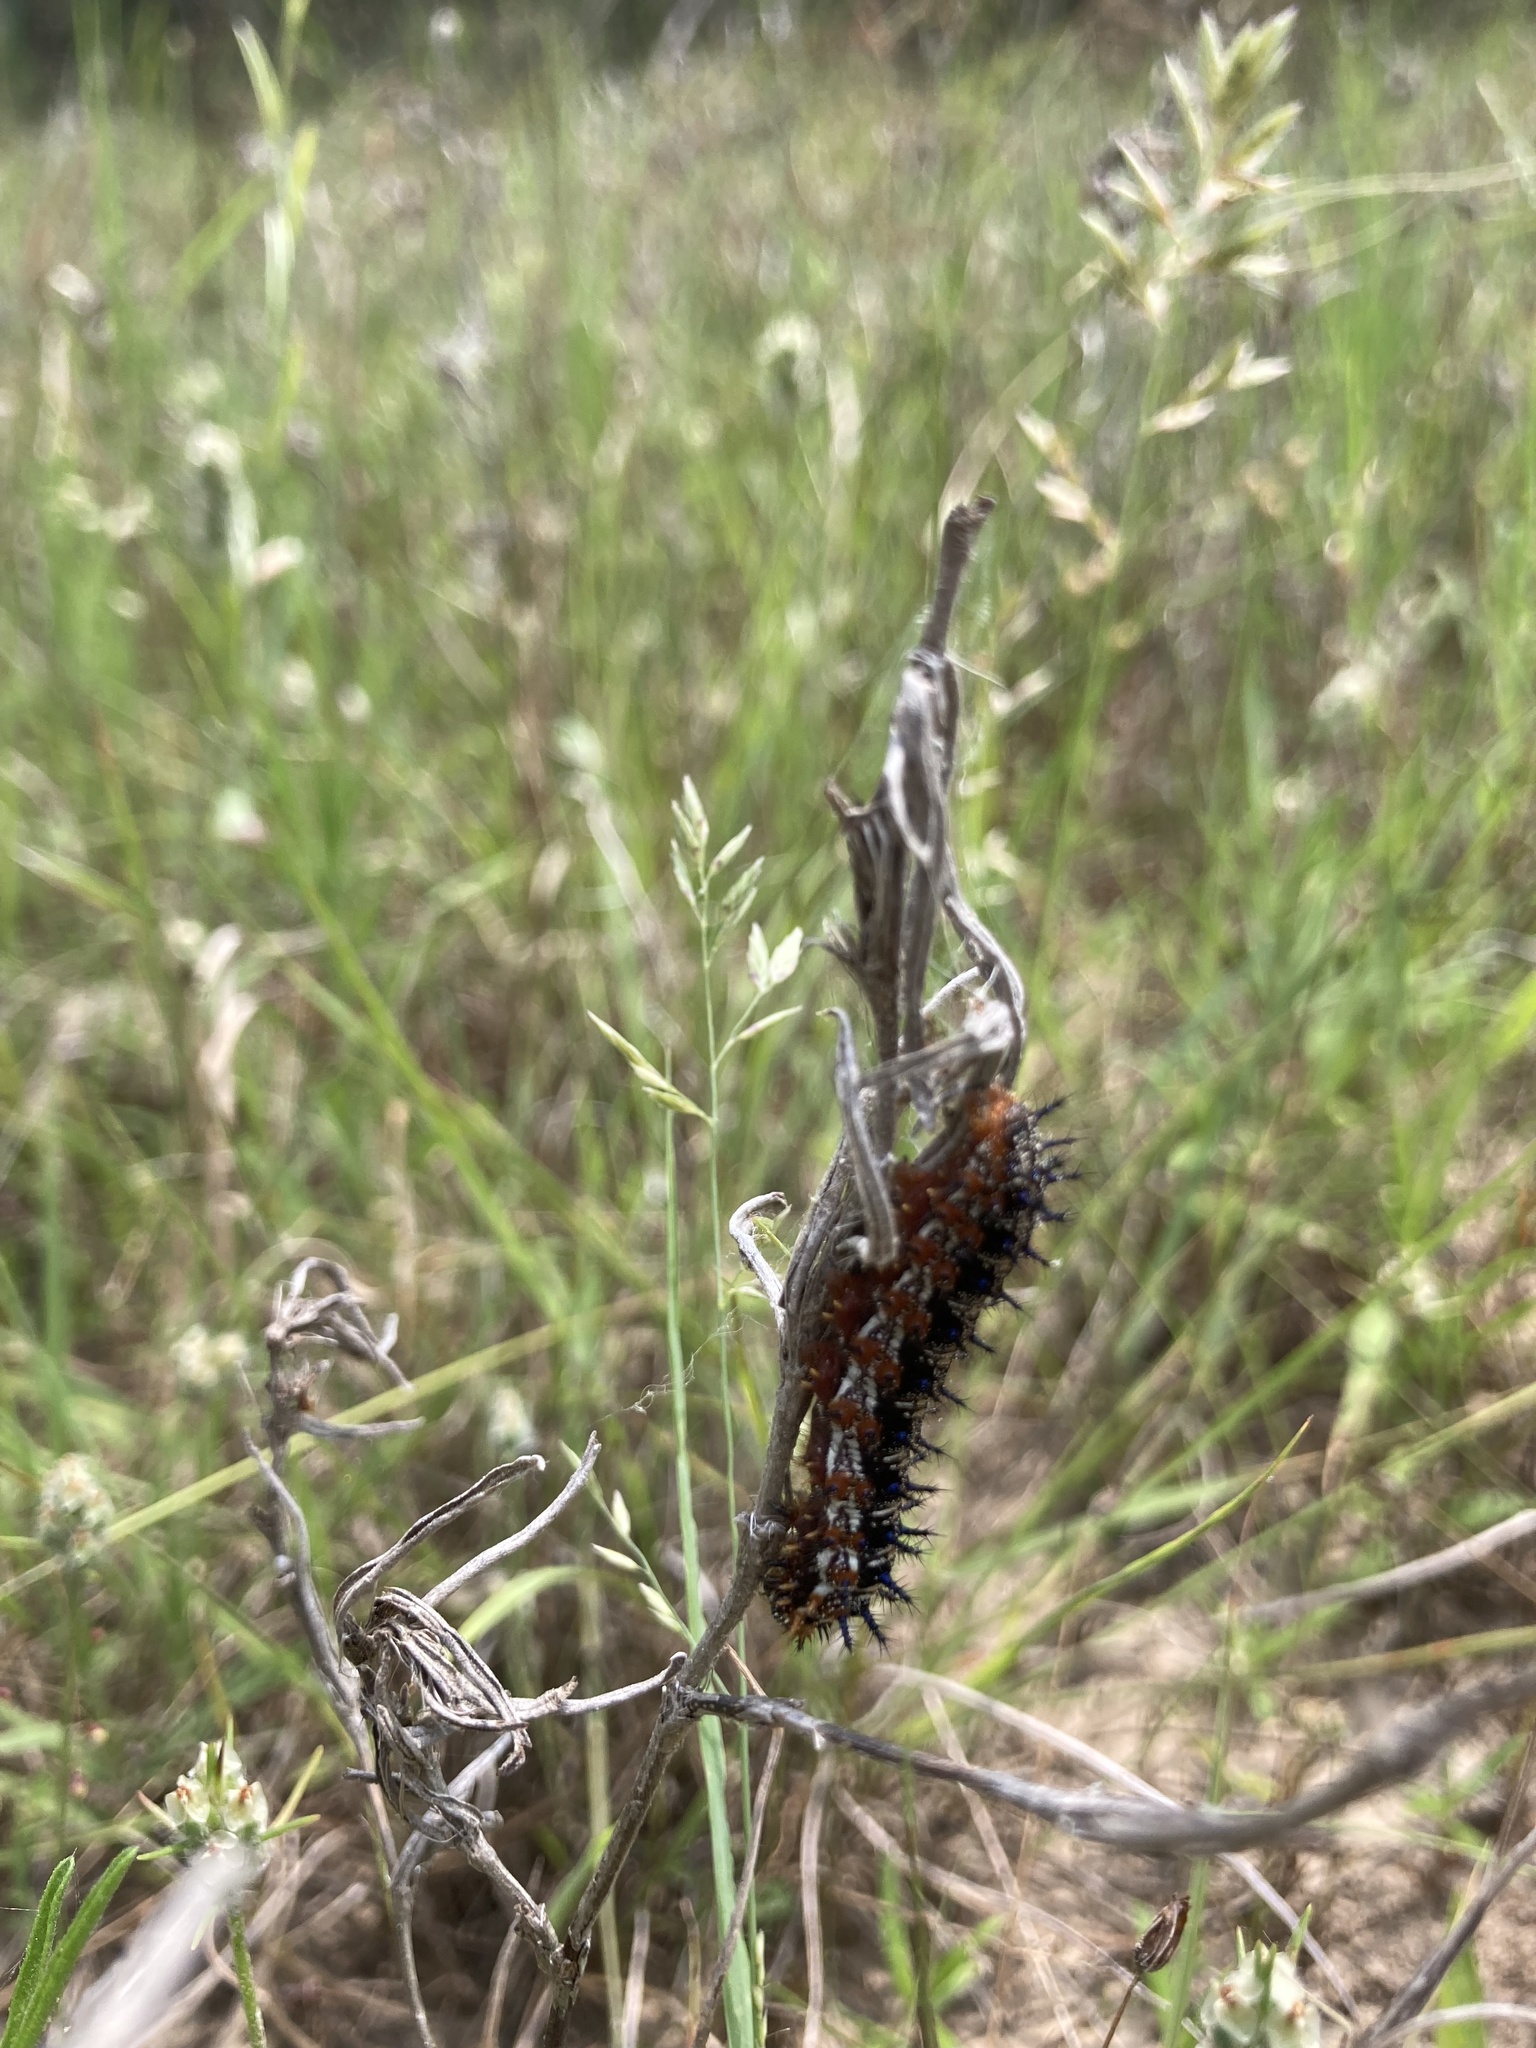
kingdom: Animalia
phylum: Arthropoda
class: Insecta
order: Lepidoptera
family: Nymphalidae
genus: Junonia
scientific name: Junonia coenia
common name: Common buckeye
